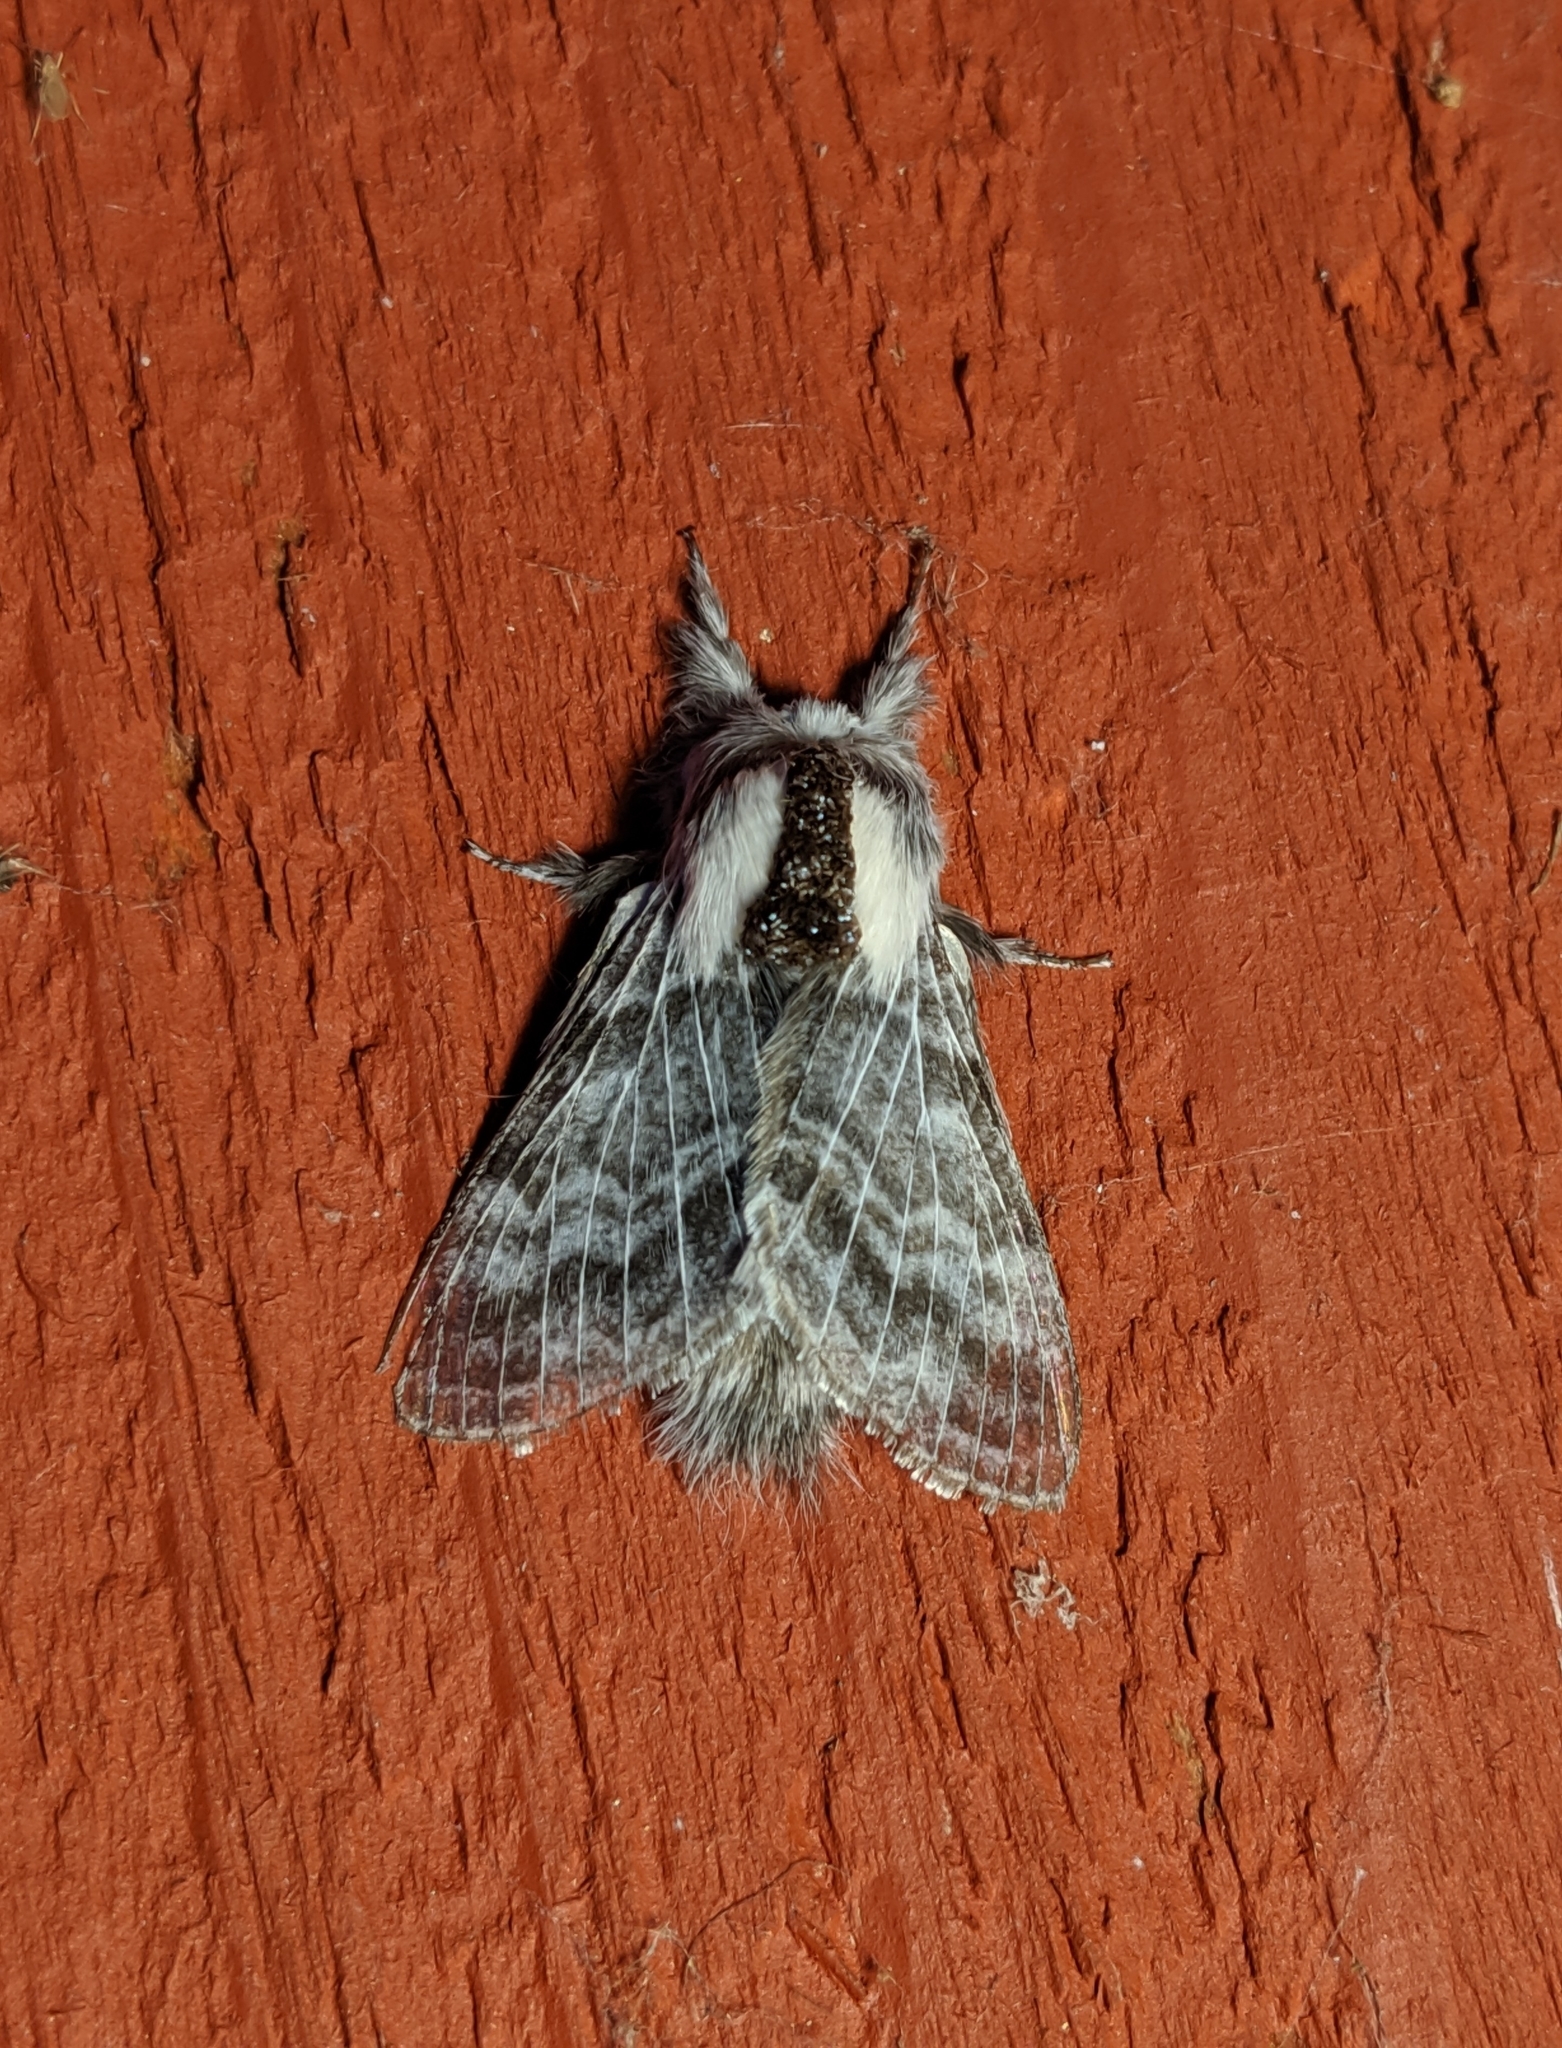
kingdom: Animalia
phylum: Arthropoda
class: Insecta
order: Lepidoptera
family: Lasiocampidae
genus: Tolype
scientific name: Tolype distincta
